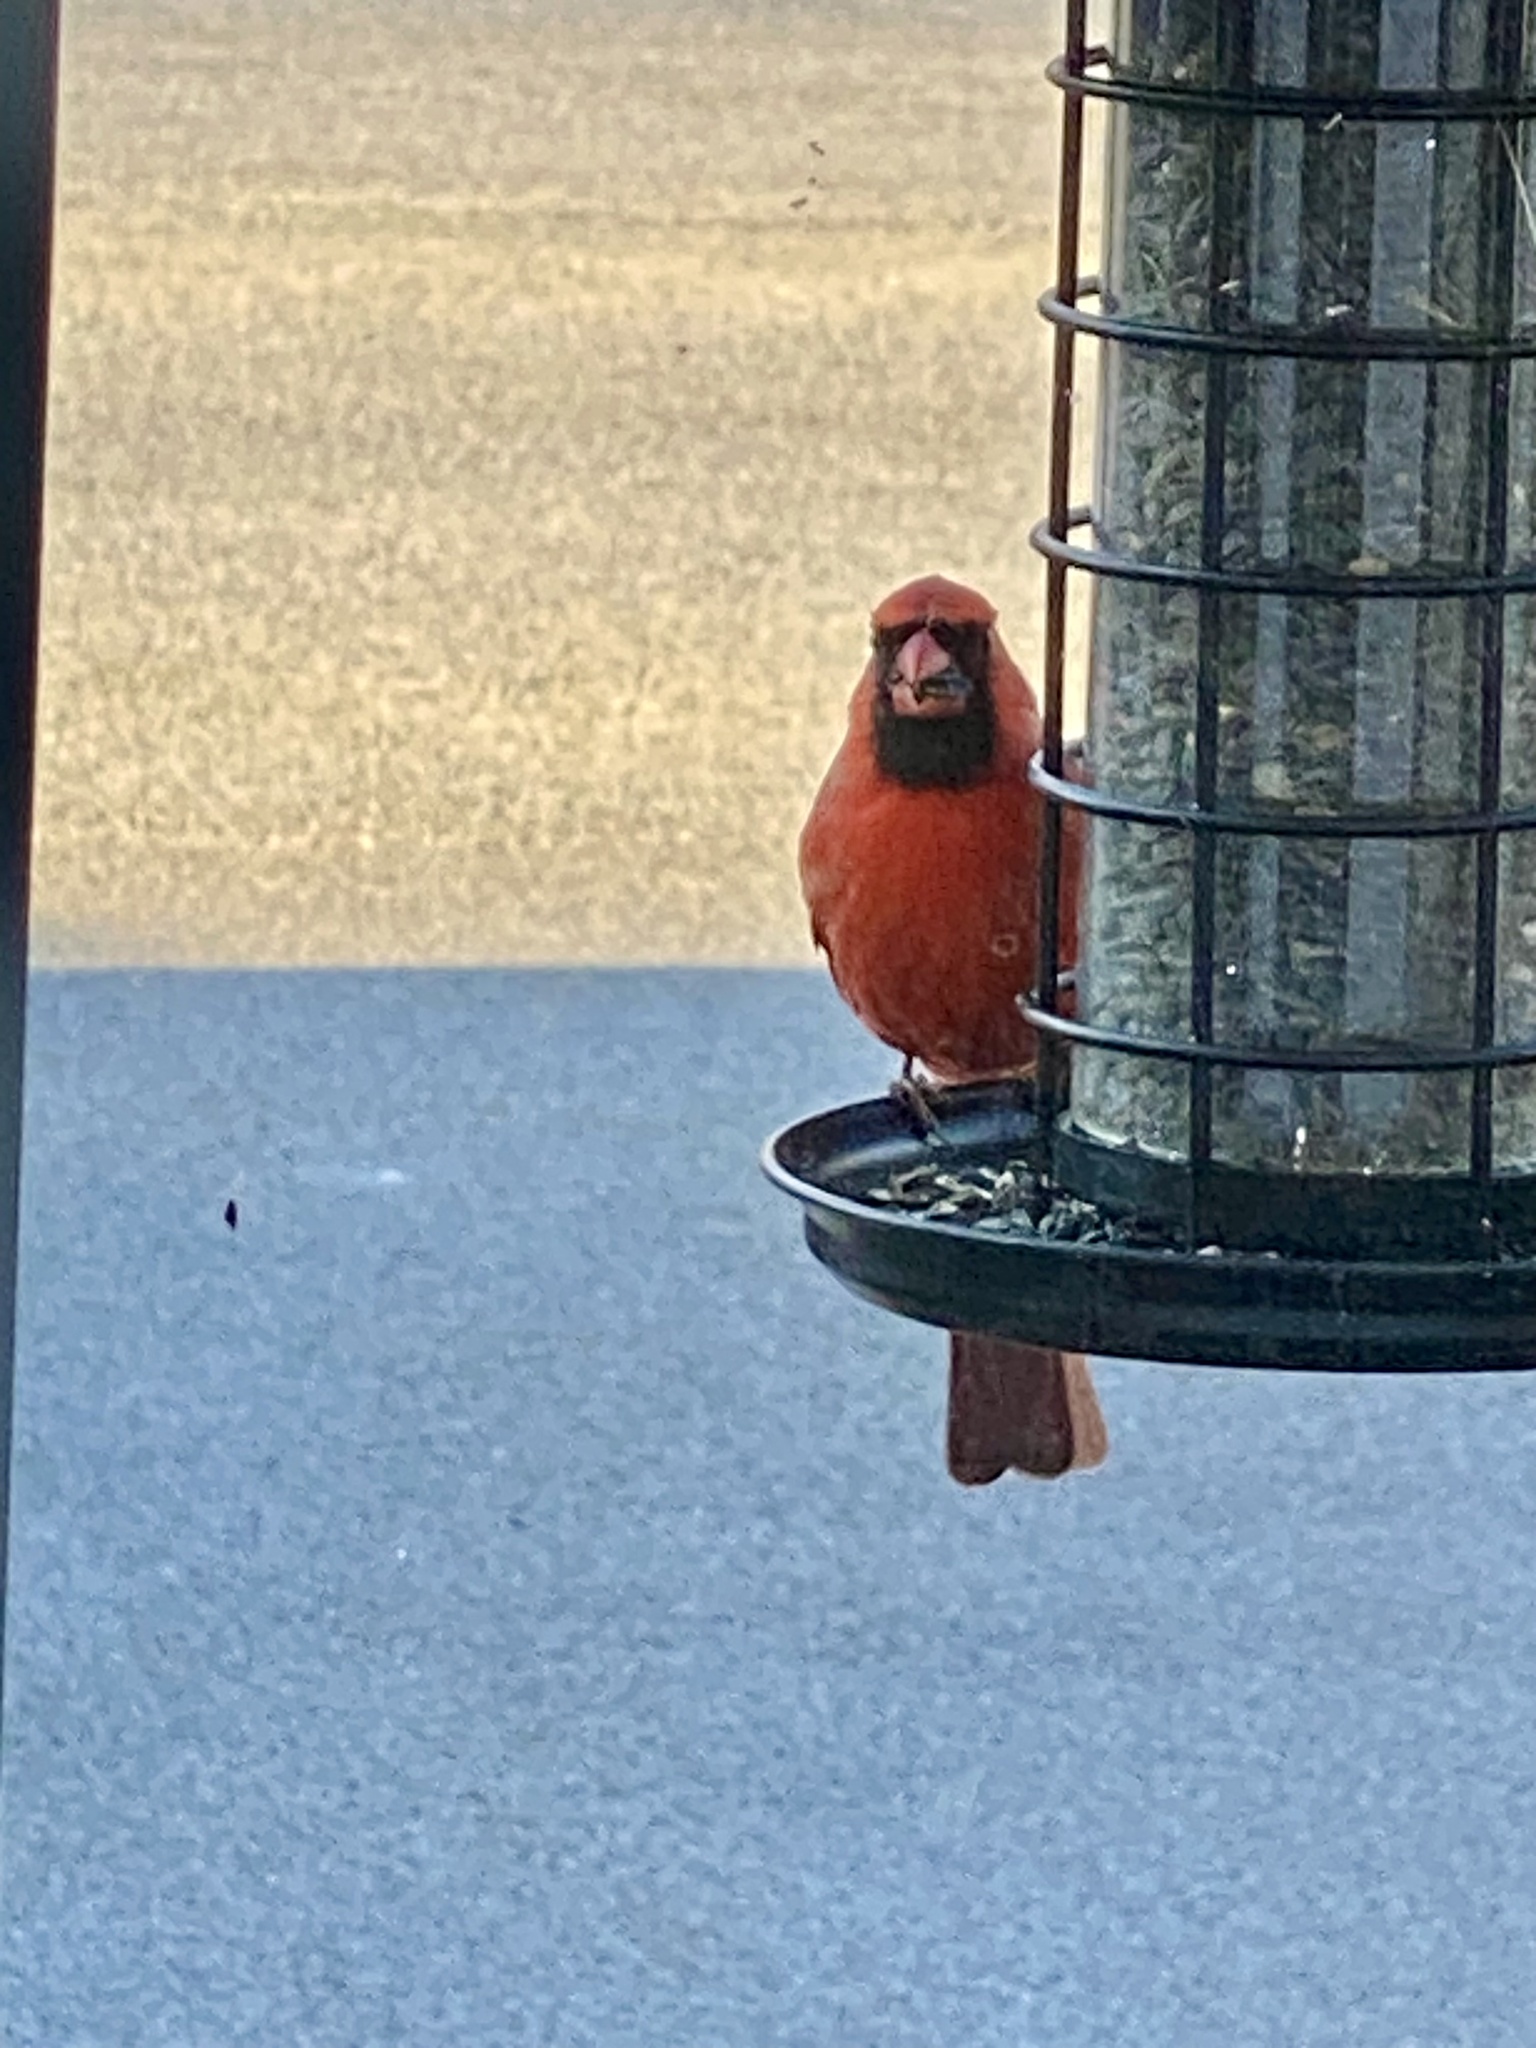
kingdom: Animalia
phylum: Chordata
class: Aves
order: Passeriformes
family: Cardinalidae
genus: Cardinalis
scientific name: Cardinalis cardinalis
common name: Northern cardinal
